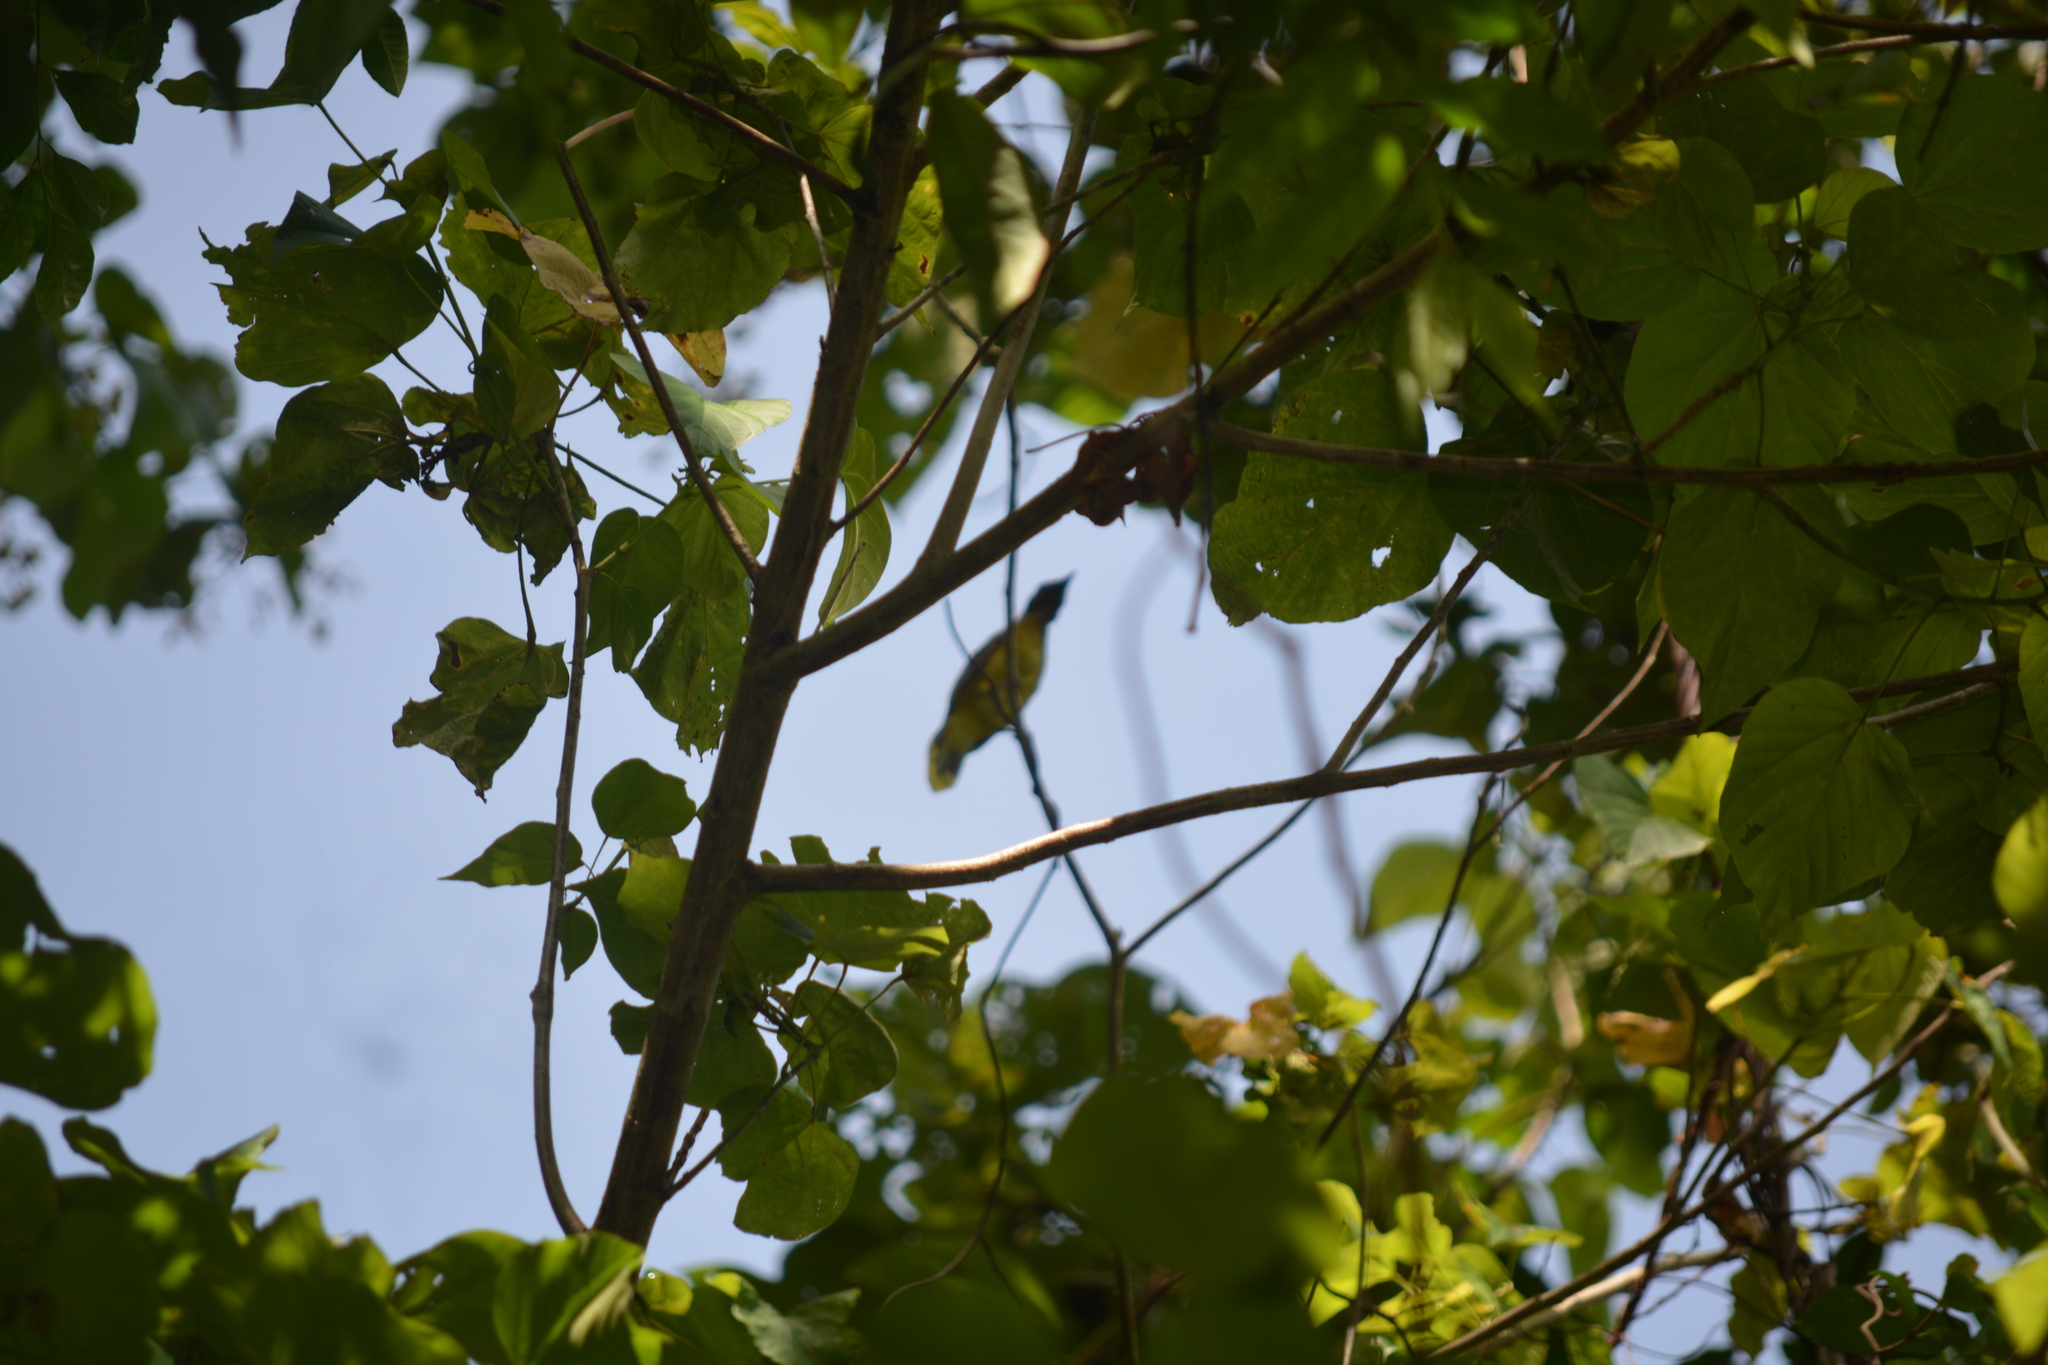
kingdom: Animalia
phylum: Chordata
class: Aves
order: Passeriformes
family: Pycnonotidae
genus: Microtarsus
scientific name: Microtarsus
